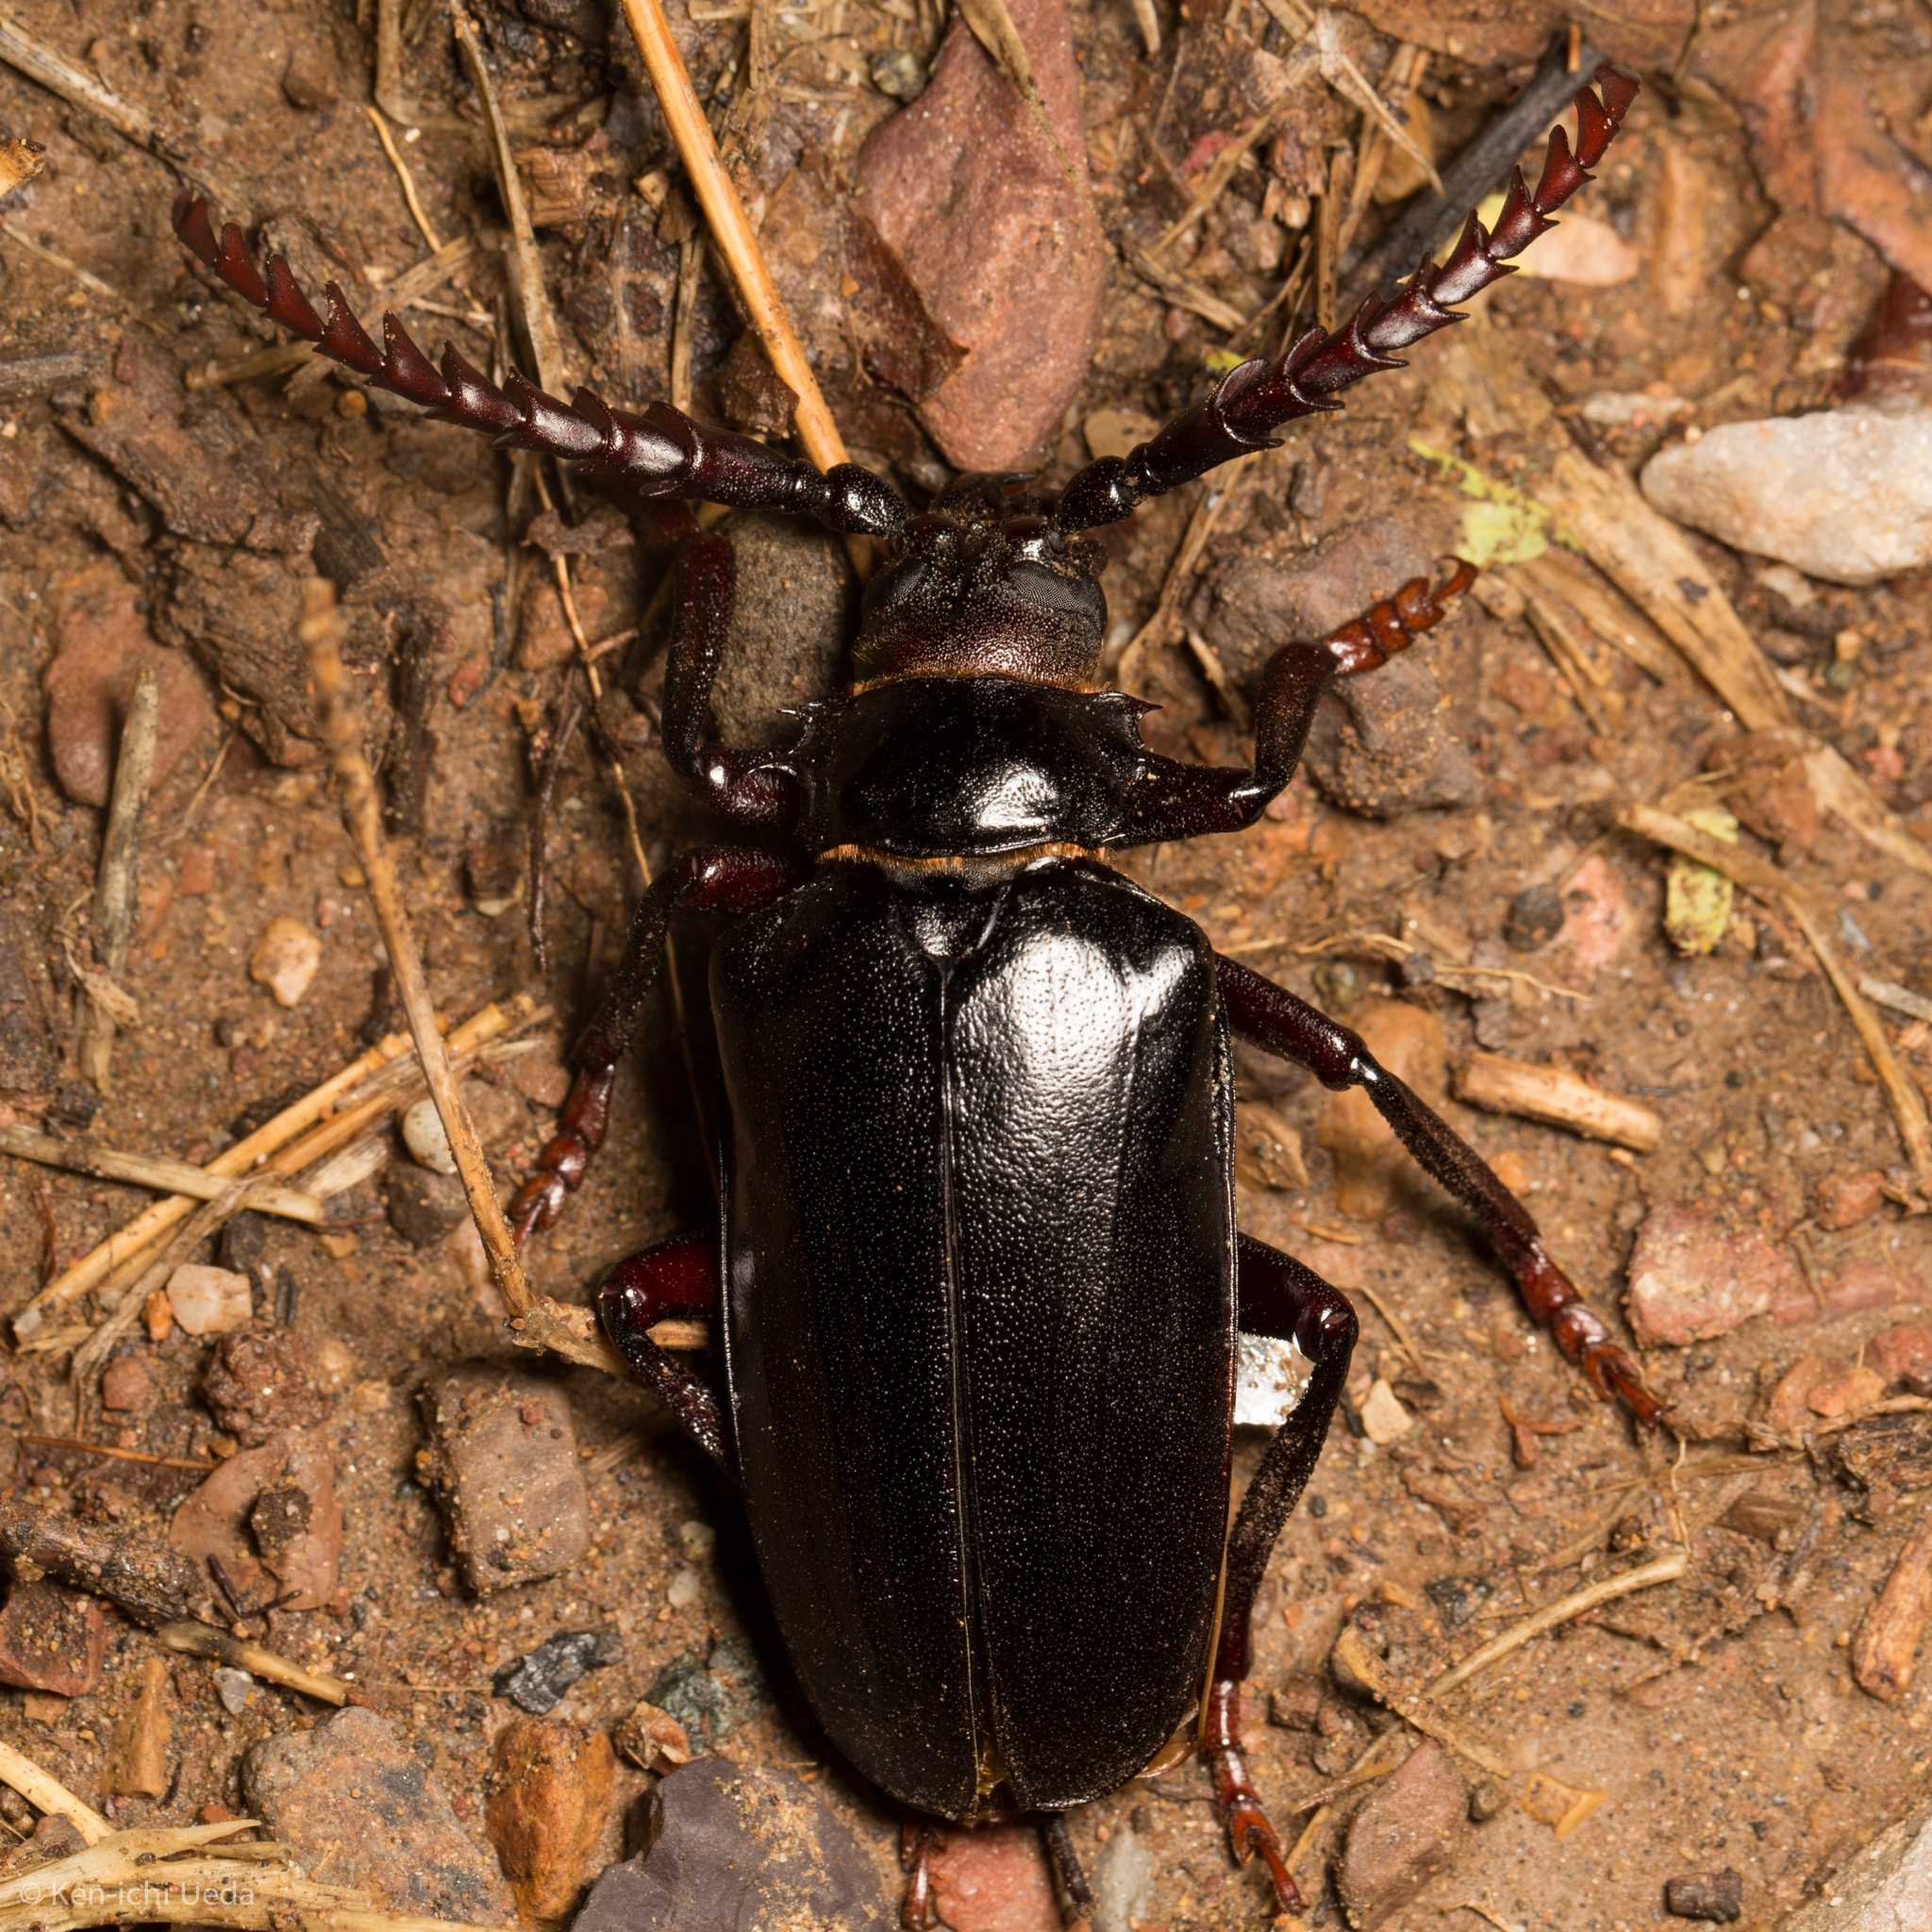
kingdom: Animalia
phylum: Arthropoda
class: Insecta
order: Coleoptera
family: Cerambycidae
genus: Prionus
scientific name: Prionus californicus
